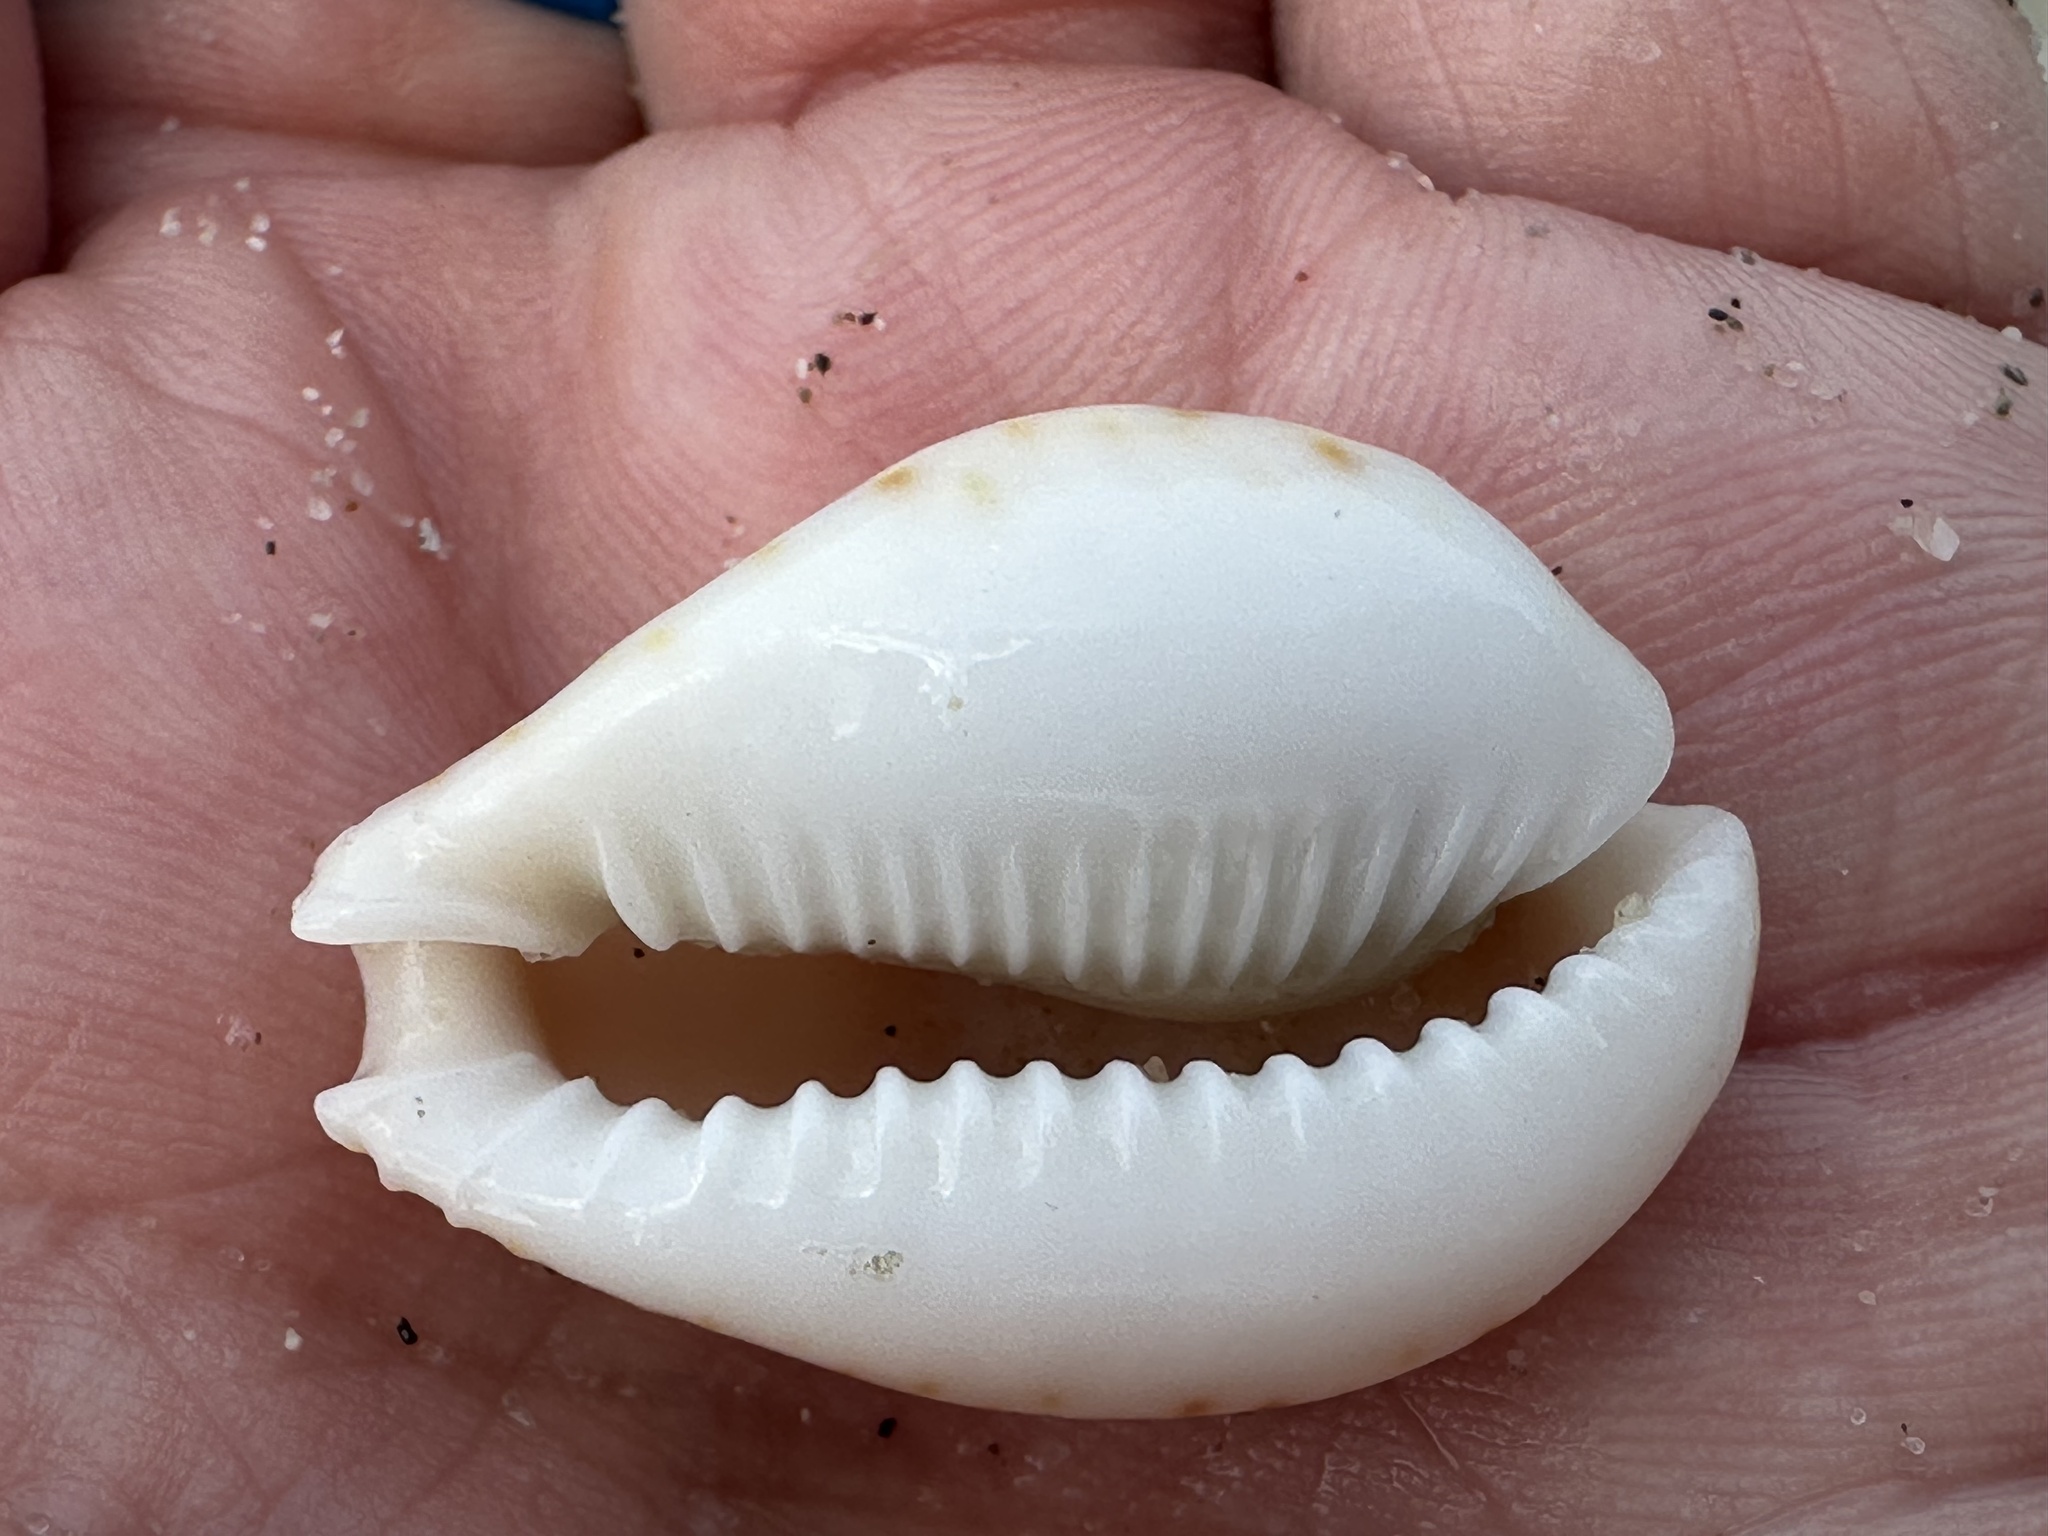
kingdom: Animalia
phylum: Mollusca
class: Gastropoda
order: Littorinimorpha
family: Cypraeidae
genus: Naria
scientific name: Naria lamarckii
